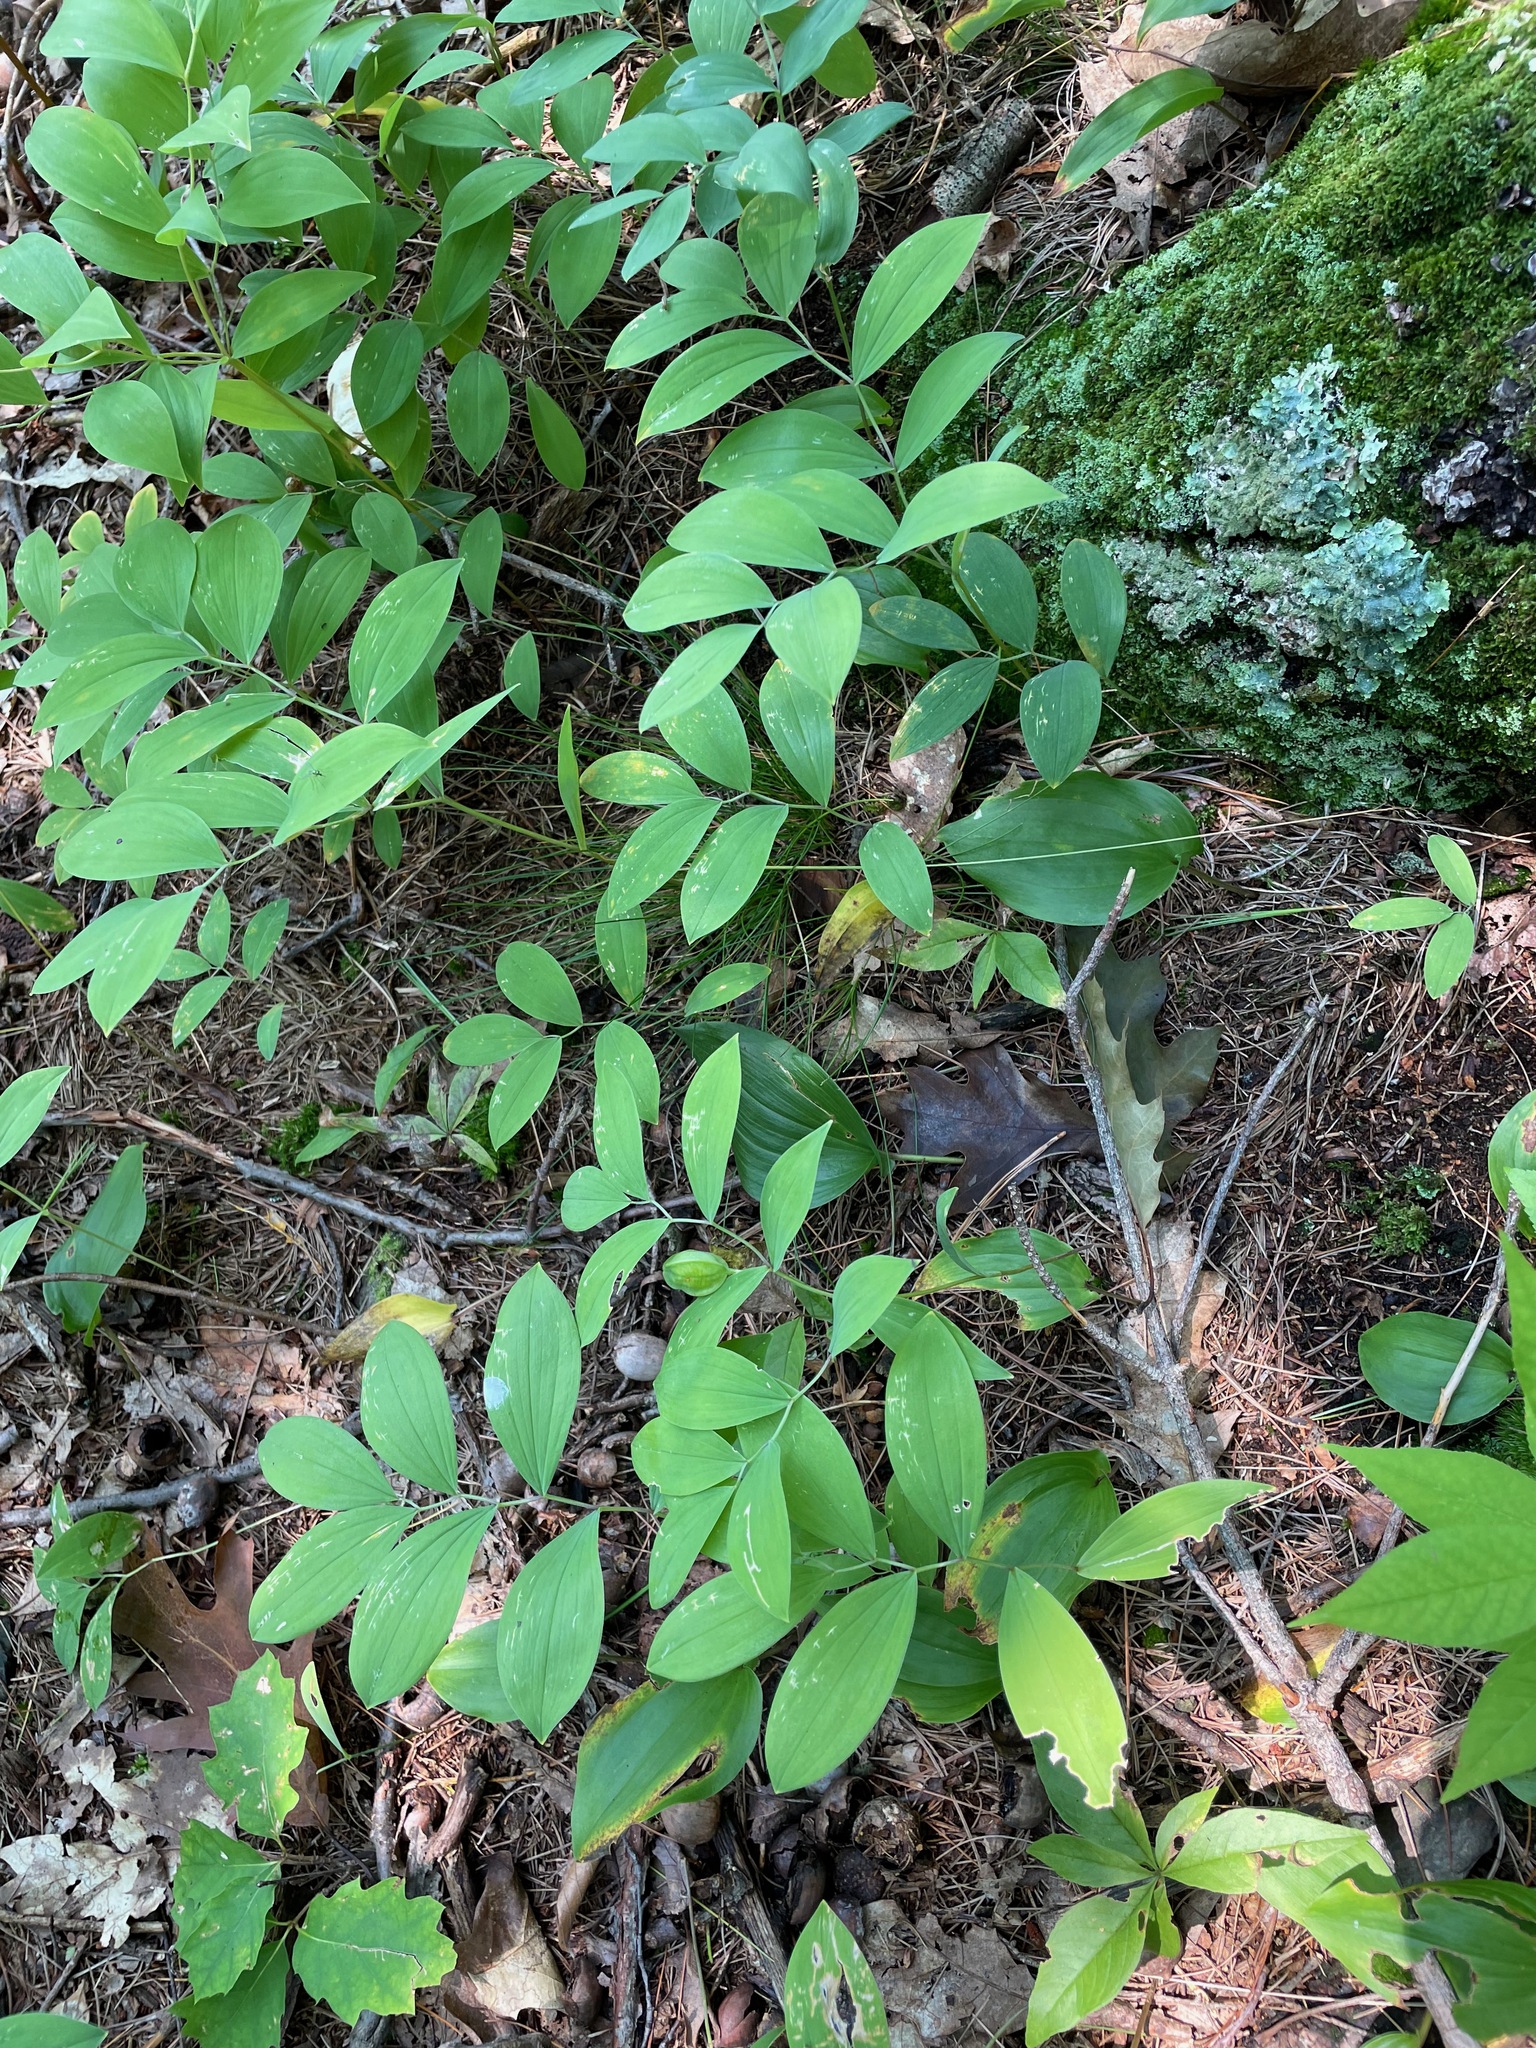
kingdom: Plantae
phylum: Tracheophyta
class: Liliopsida
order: Liliales
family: Colchicaceae
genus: Uvularia
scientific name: Uvularia sessilifolia
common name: Straw-lily
